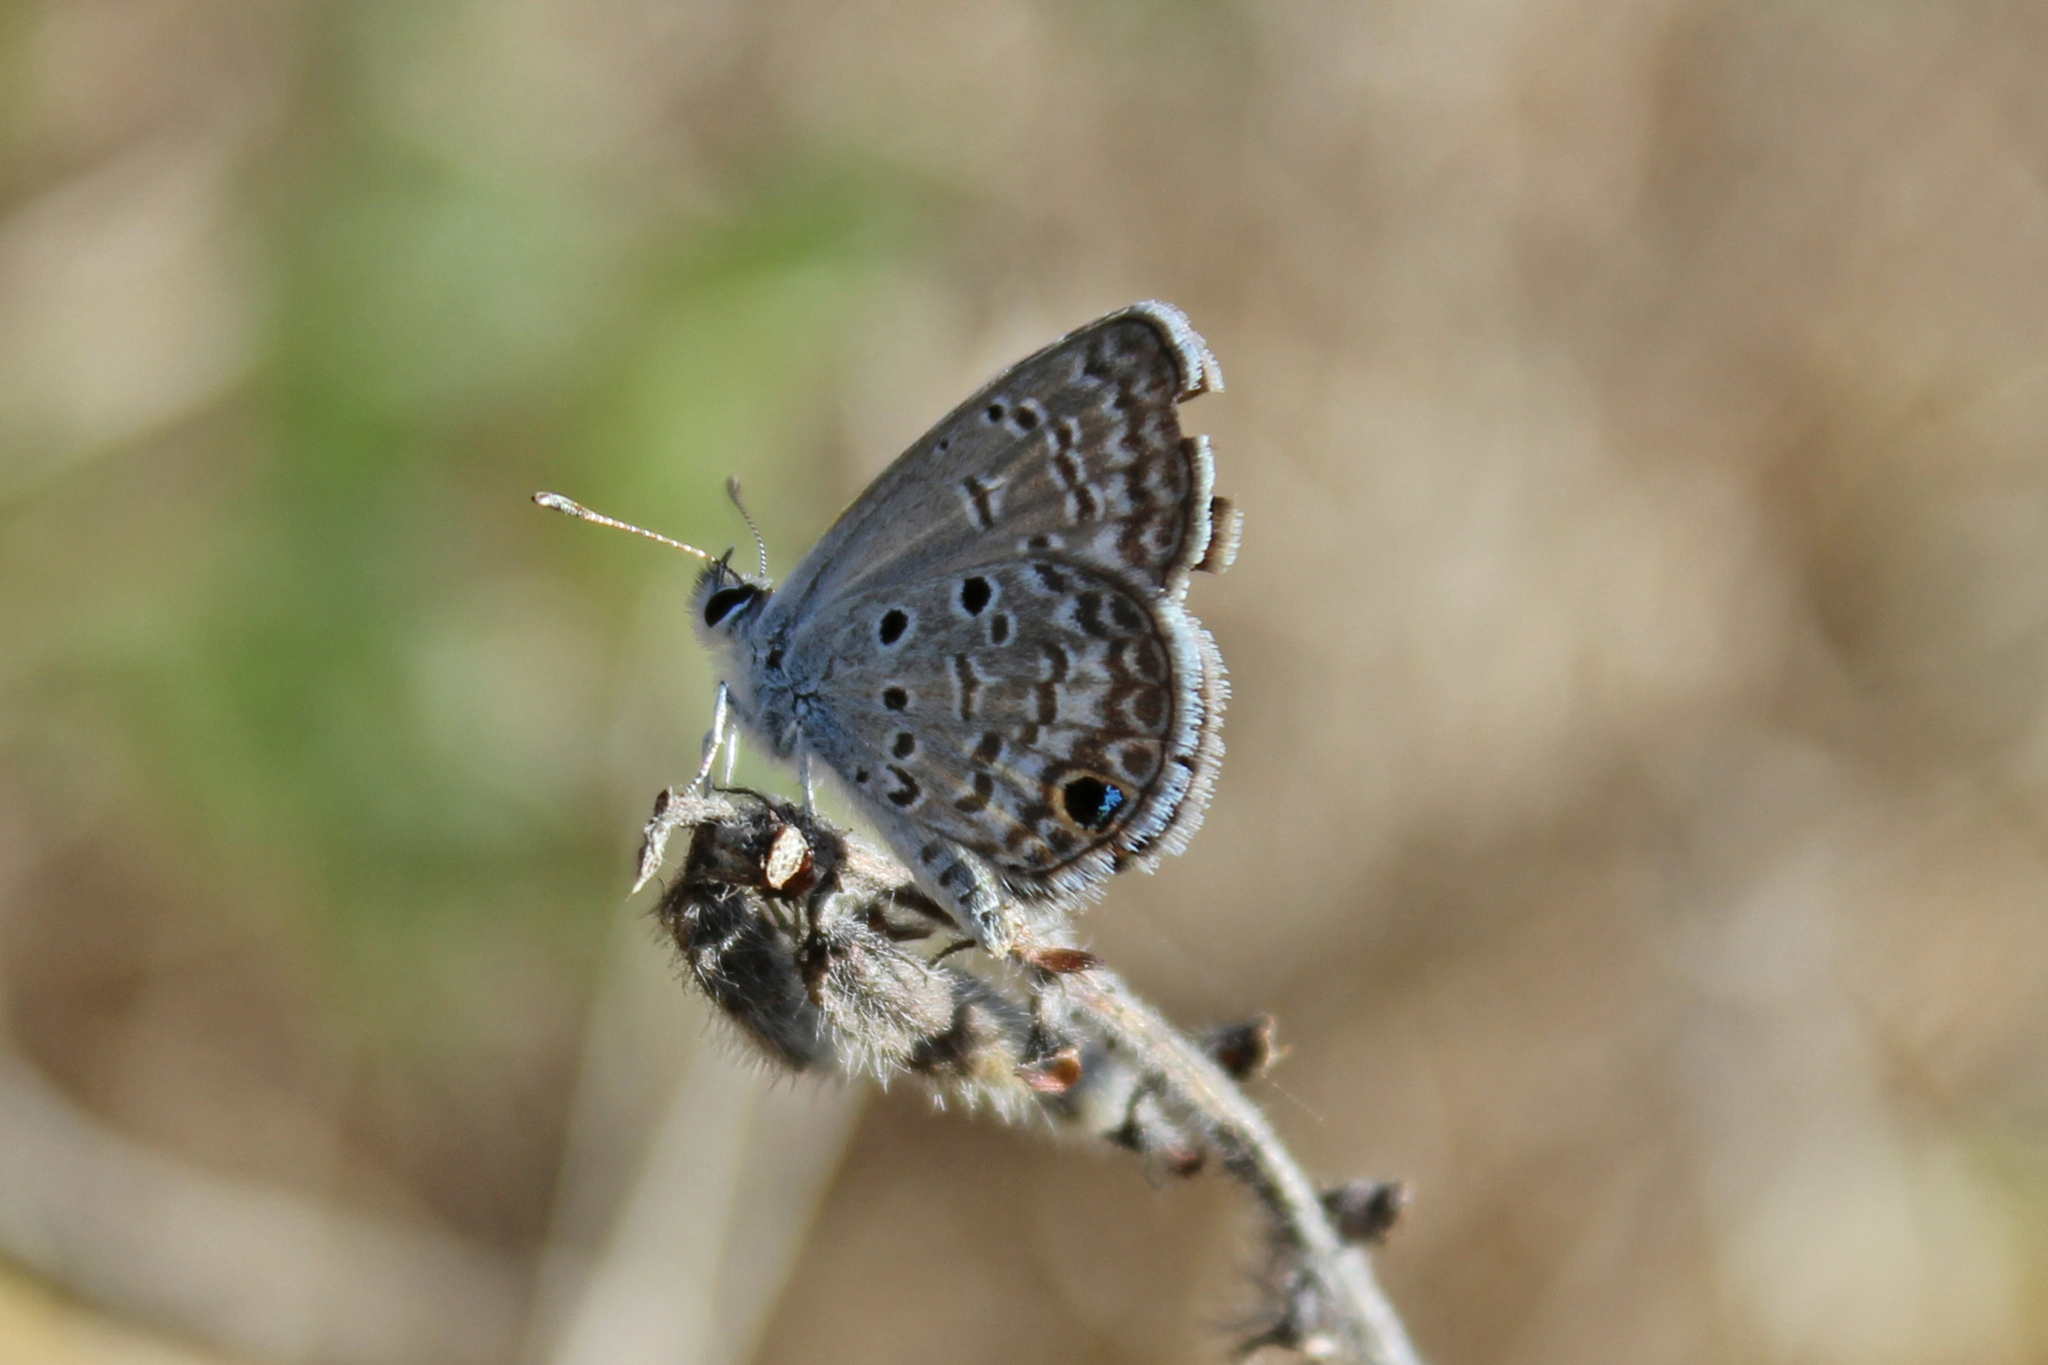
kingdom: Animalia
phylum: Arthropoda
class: Insecta
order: Lepidoptera
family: Lycaenidae
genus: Hemiargus
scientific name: Hemiargus ceraunus
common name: Ceraunus blue
